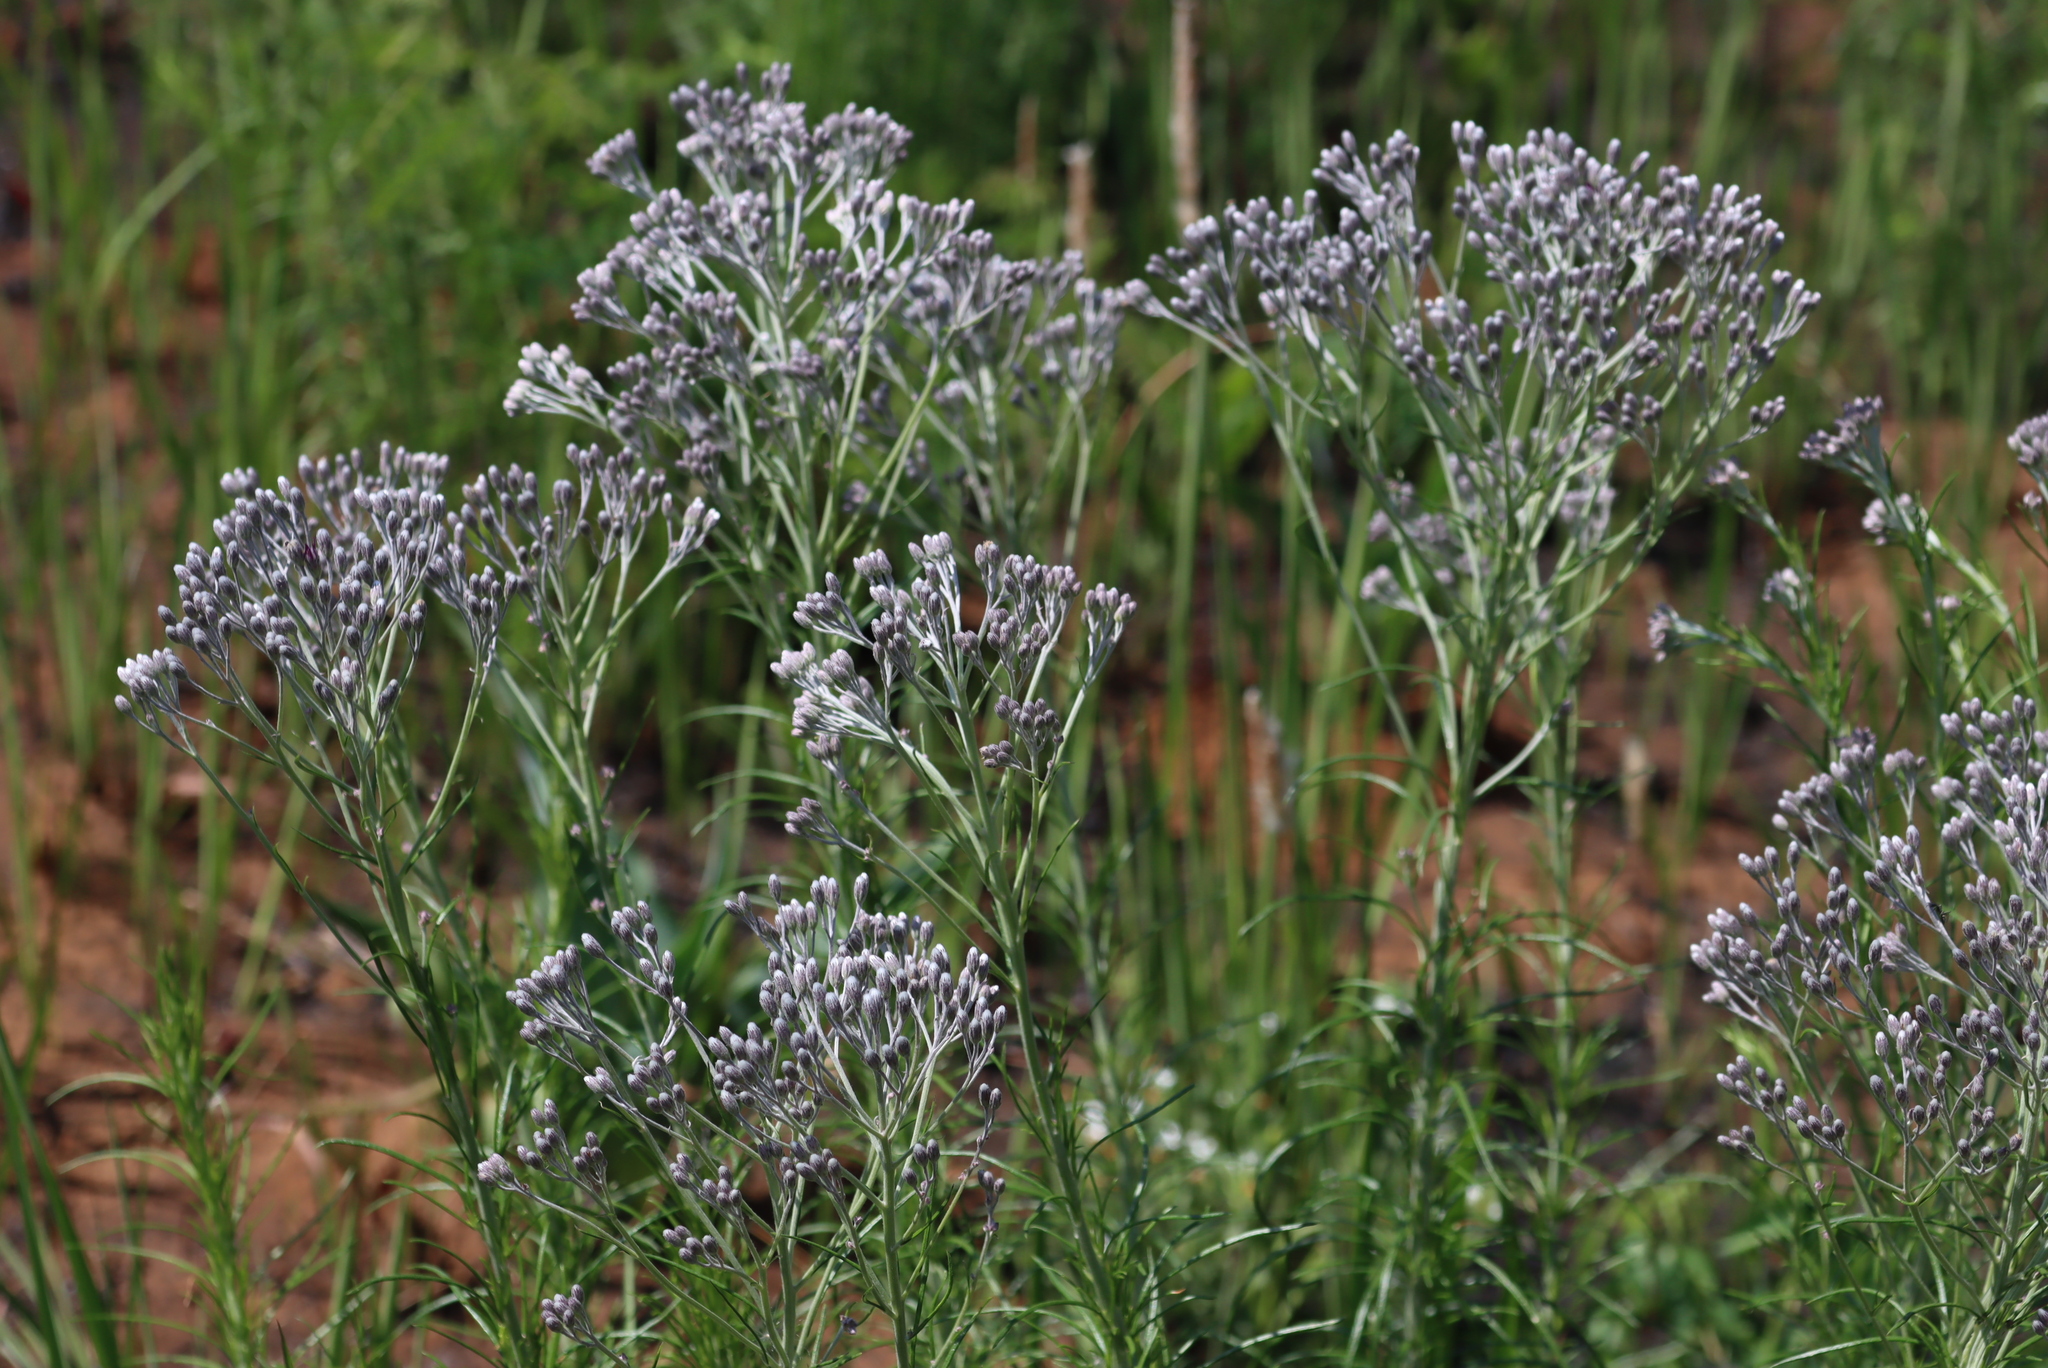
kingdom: Plantae
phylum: Tracheophyta
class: Magnoliopsida
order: Asterales
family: Asteraceae
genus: Hilliardiella
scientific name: Hilliardiella capensis
